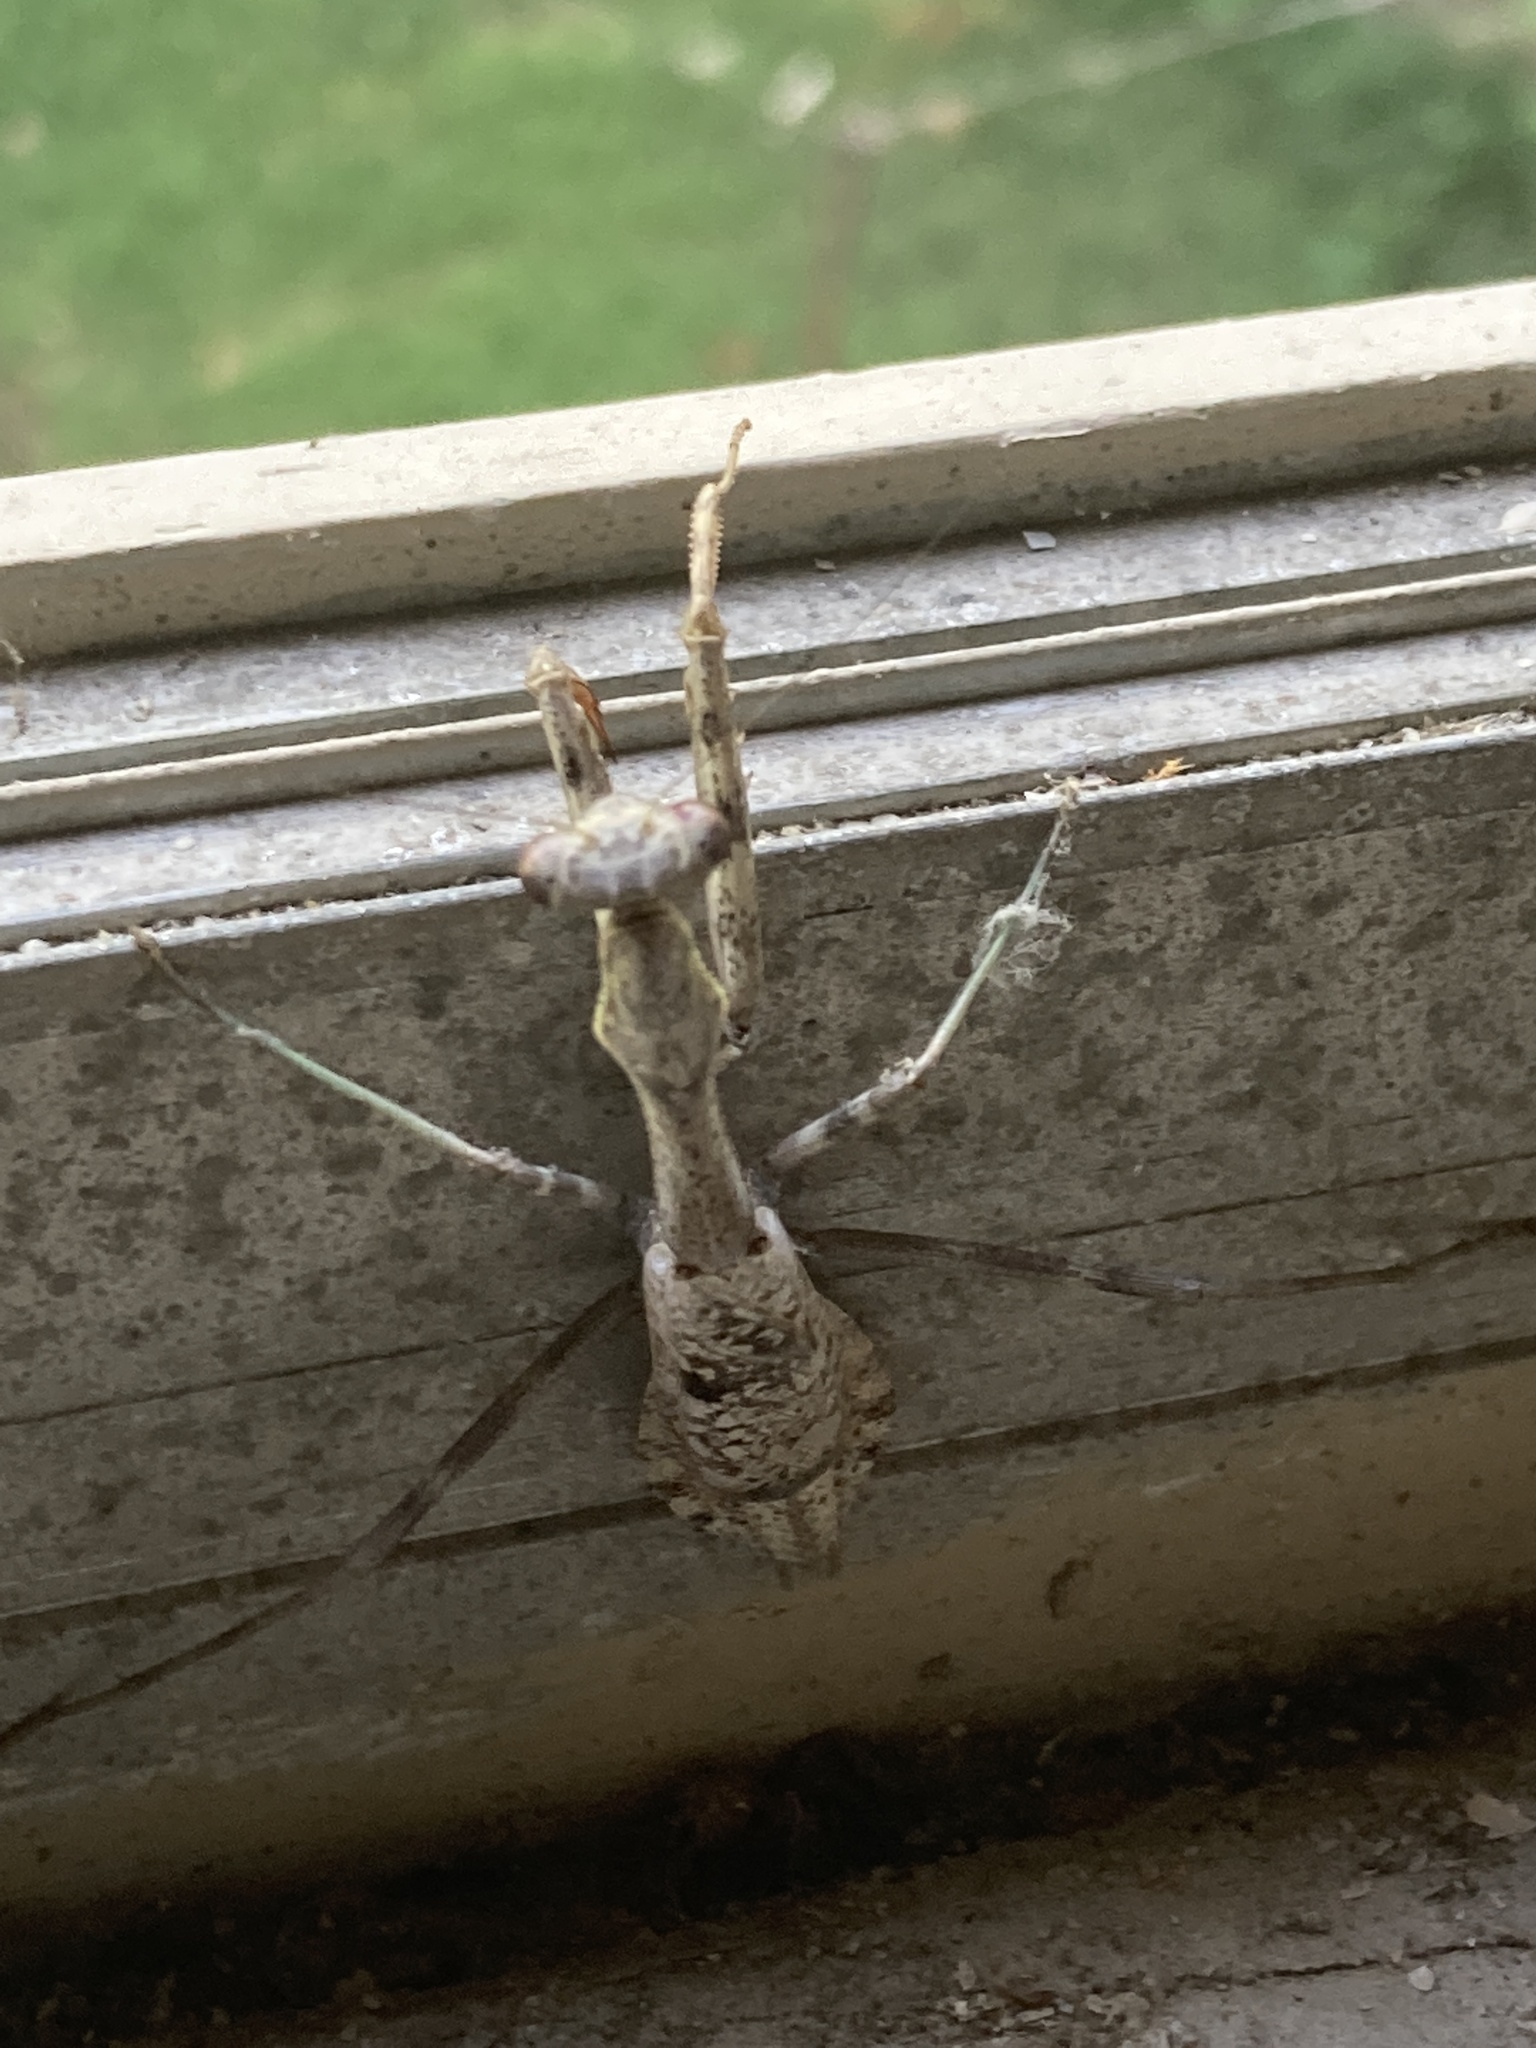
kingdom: Animalia
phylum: Arthropoda
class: Insecta
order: Mantodea
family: Mantidae
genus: Stagmomantis
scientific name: Stagmomantis carolina
